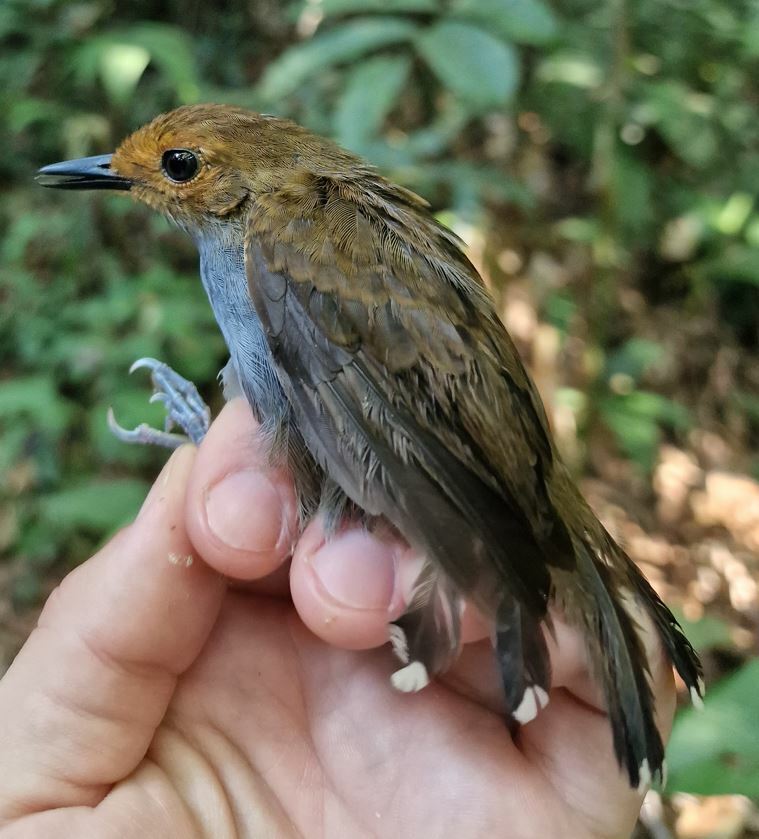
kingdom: Animalia
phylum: Chordata
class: Aves
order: Passeriformes
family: Thamnophilidae
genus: Willisornis
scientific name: Willisornis poecilinotus
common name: Common scale-backed antbird
